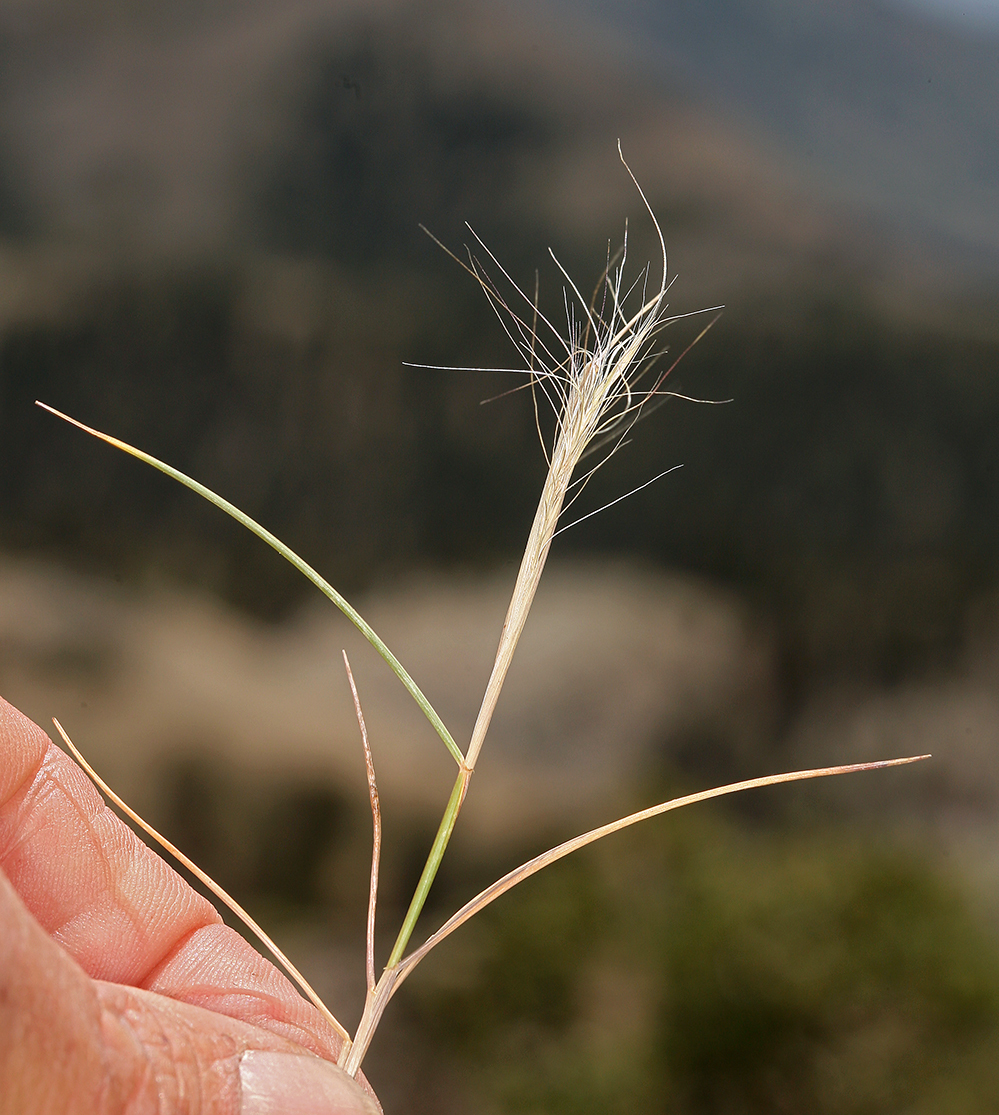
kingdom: Plantae
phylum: Tracheophyta
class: Liliopsida
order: Poales
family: Poaceae
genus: Elymus
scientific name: Elymus elymoides
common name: Bottlebrush squirreltail
